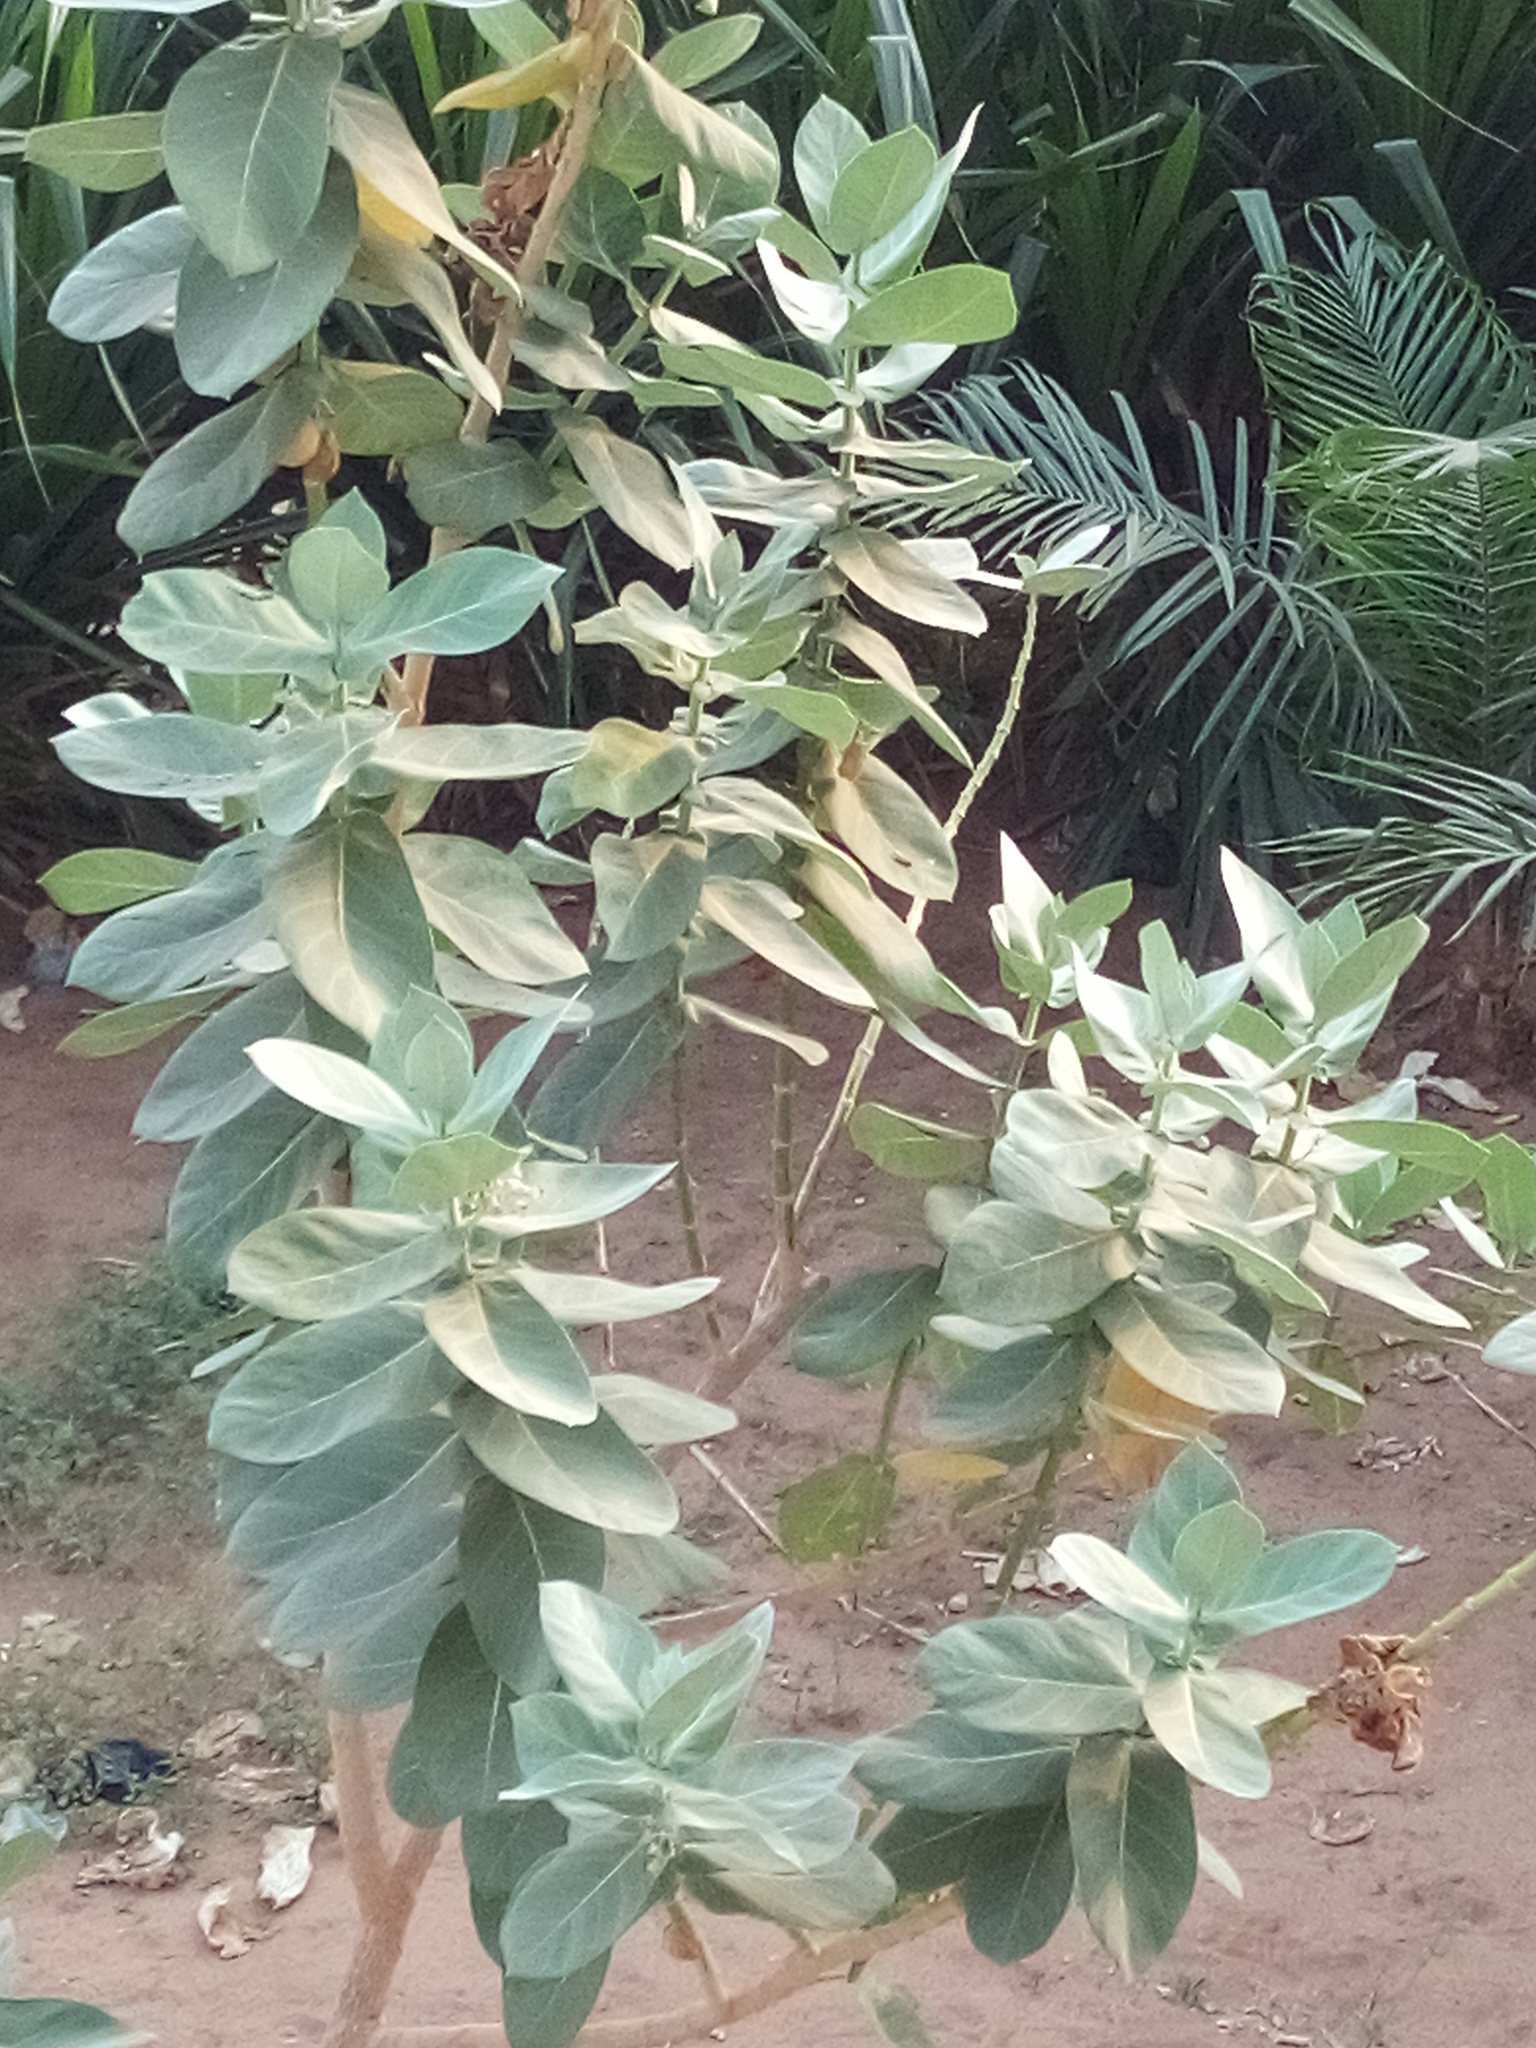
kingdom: Plantae
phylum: Tracheophyta
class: Magnoliopsida
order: Gentianales
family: Apocynaceae
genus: Calotropis
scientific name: Calotropis procera
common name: Roostertree
